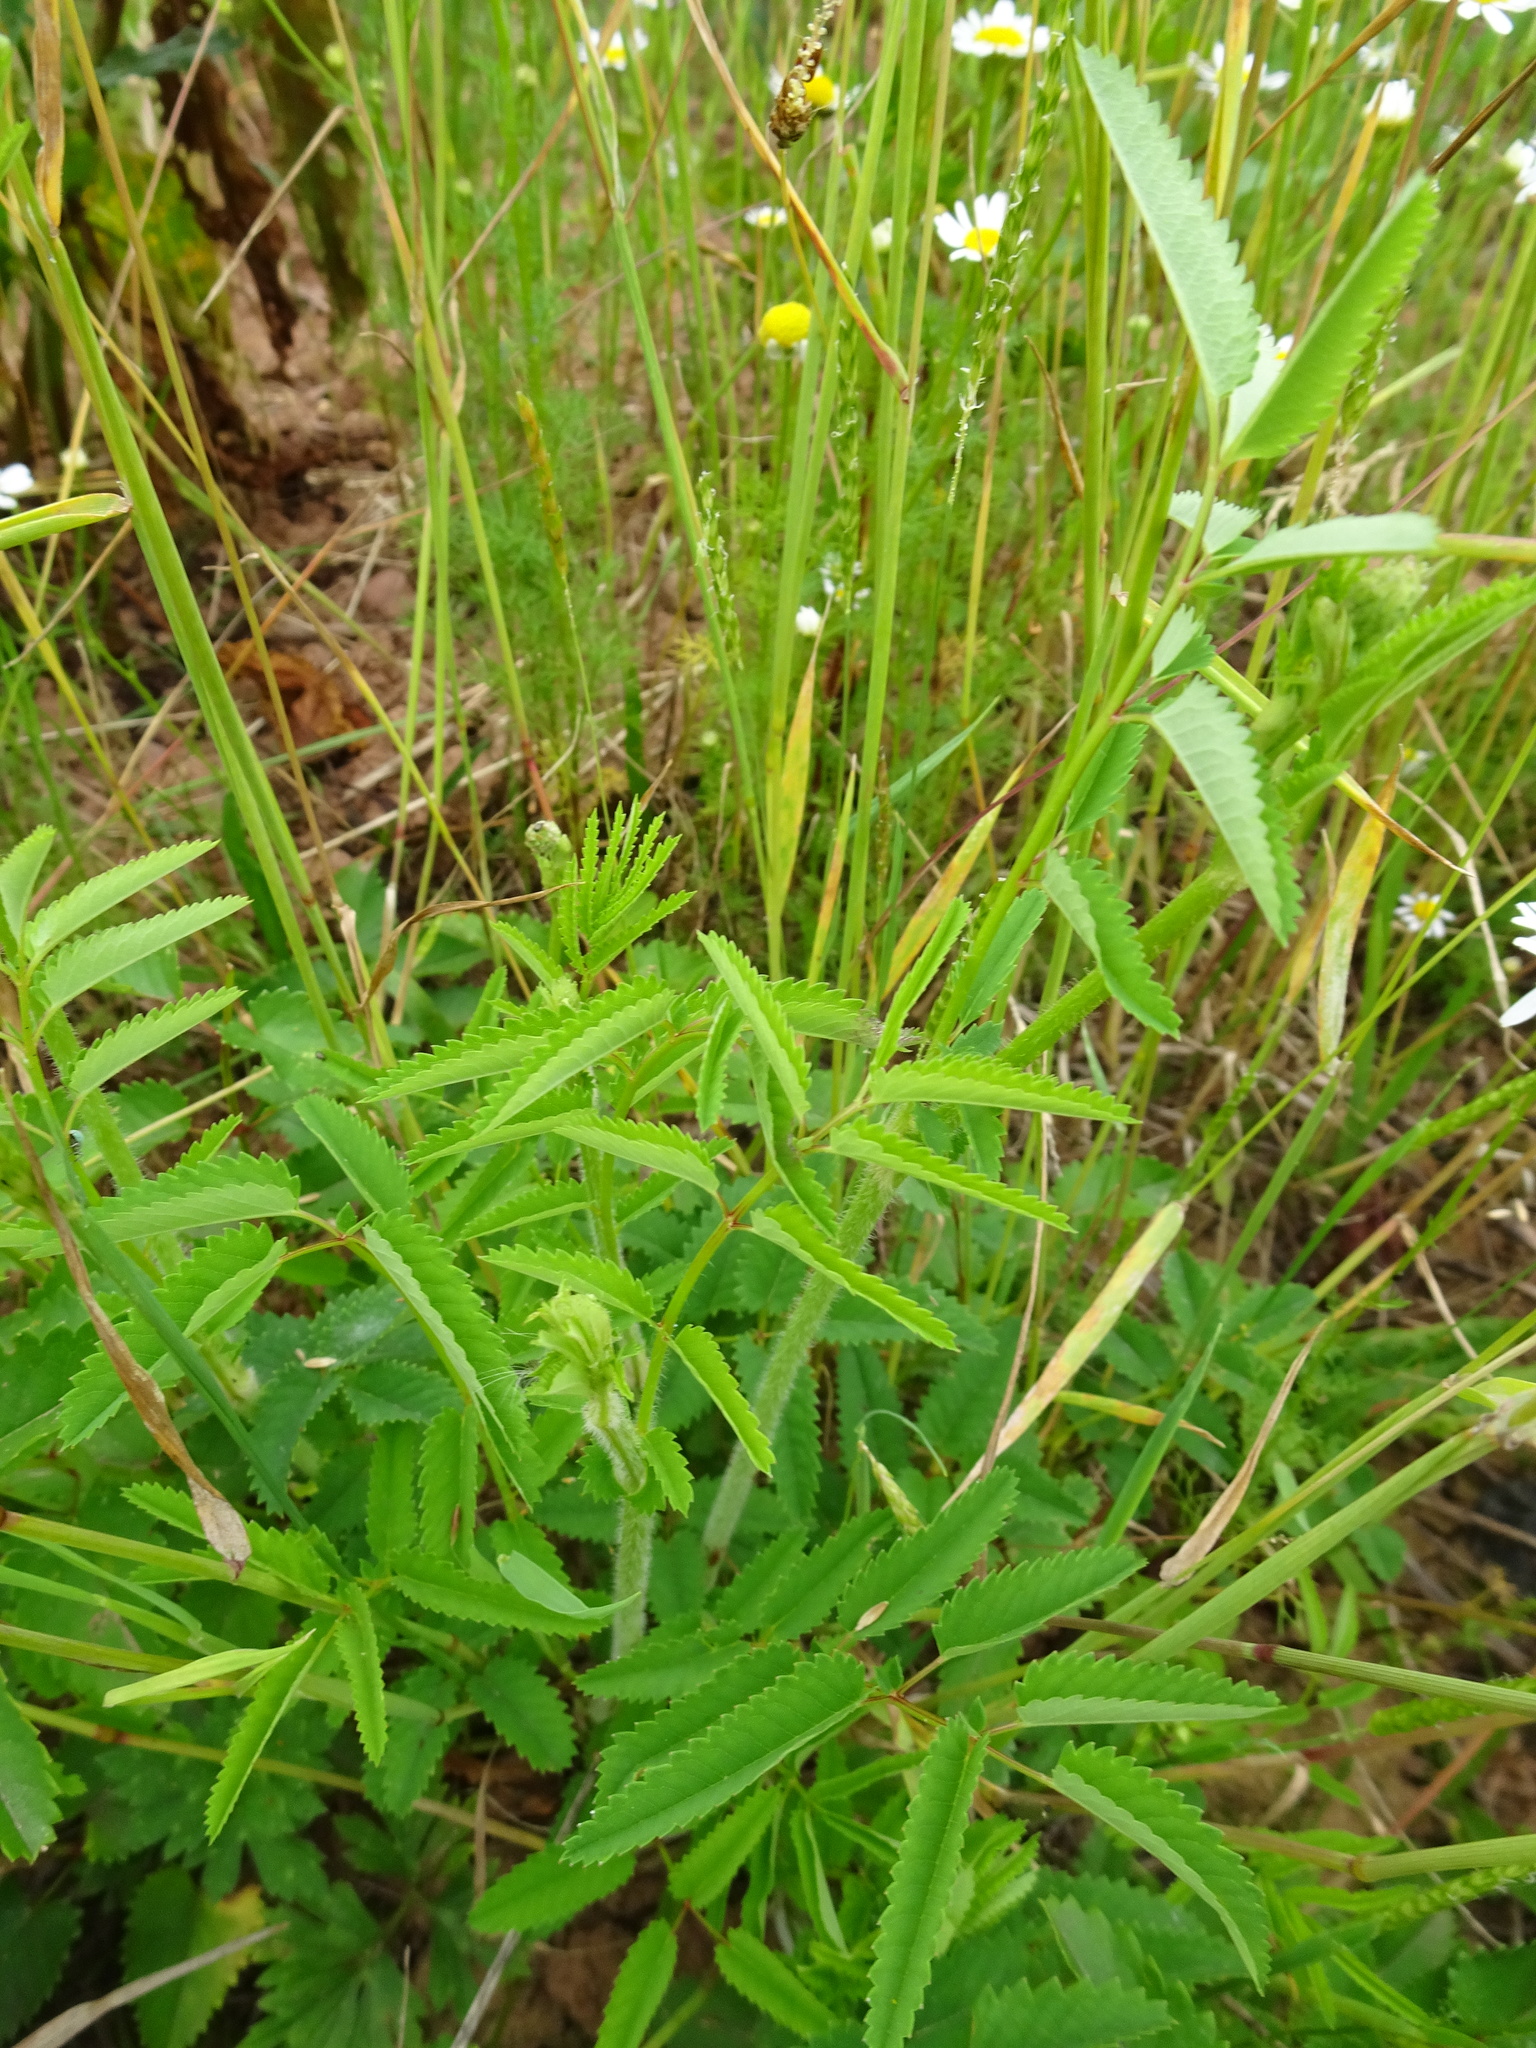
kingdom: Plantae
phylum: Tracheophyta
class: Magnoliopsida
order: Rosales
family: Rosaceae
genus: Sanguisorba
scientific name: Sanguisorba officinalis
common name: Great burnet
